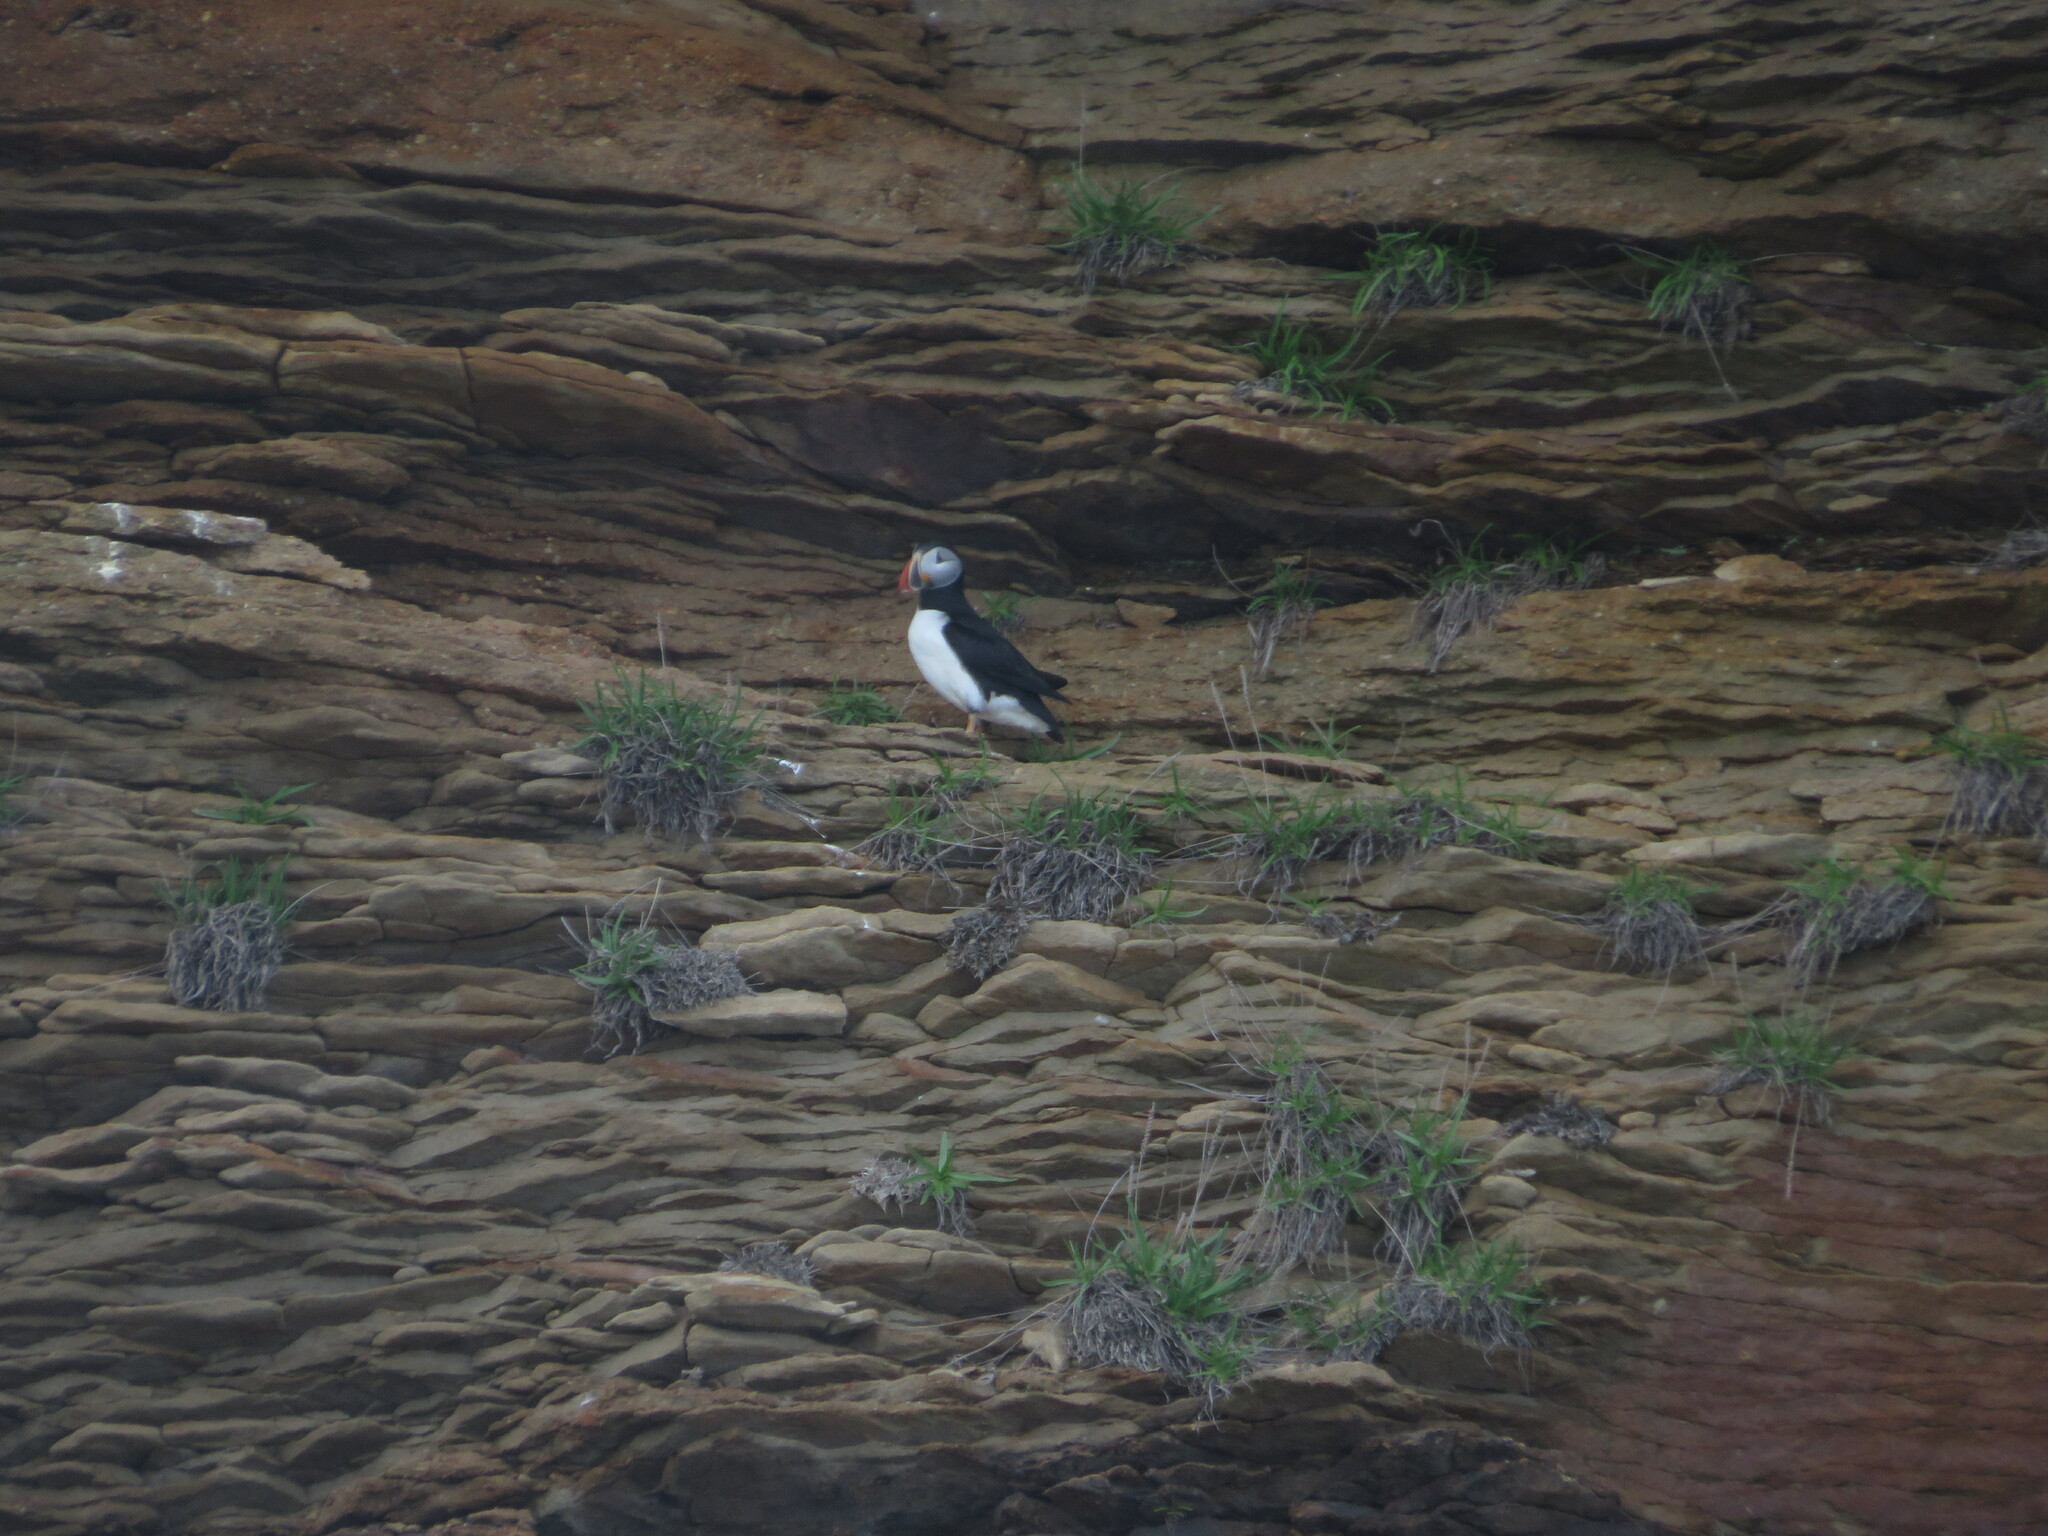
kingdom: Animalia
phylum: Chordata
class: Aves
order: Charadriiformes
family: Alcidae
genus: Fratercula
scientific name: Fratercula arctica
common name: Atlantic puffin
